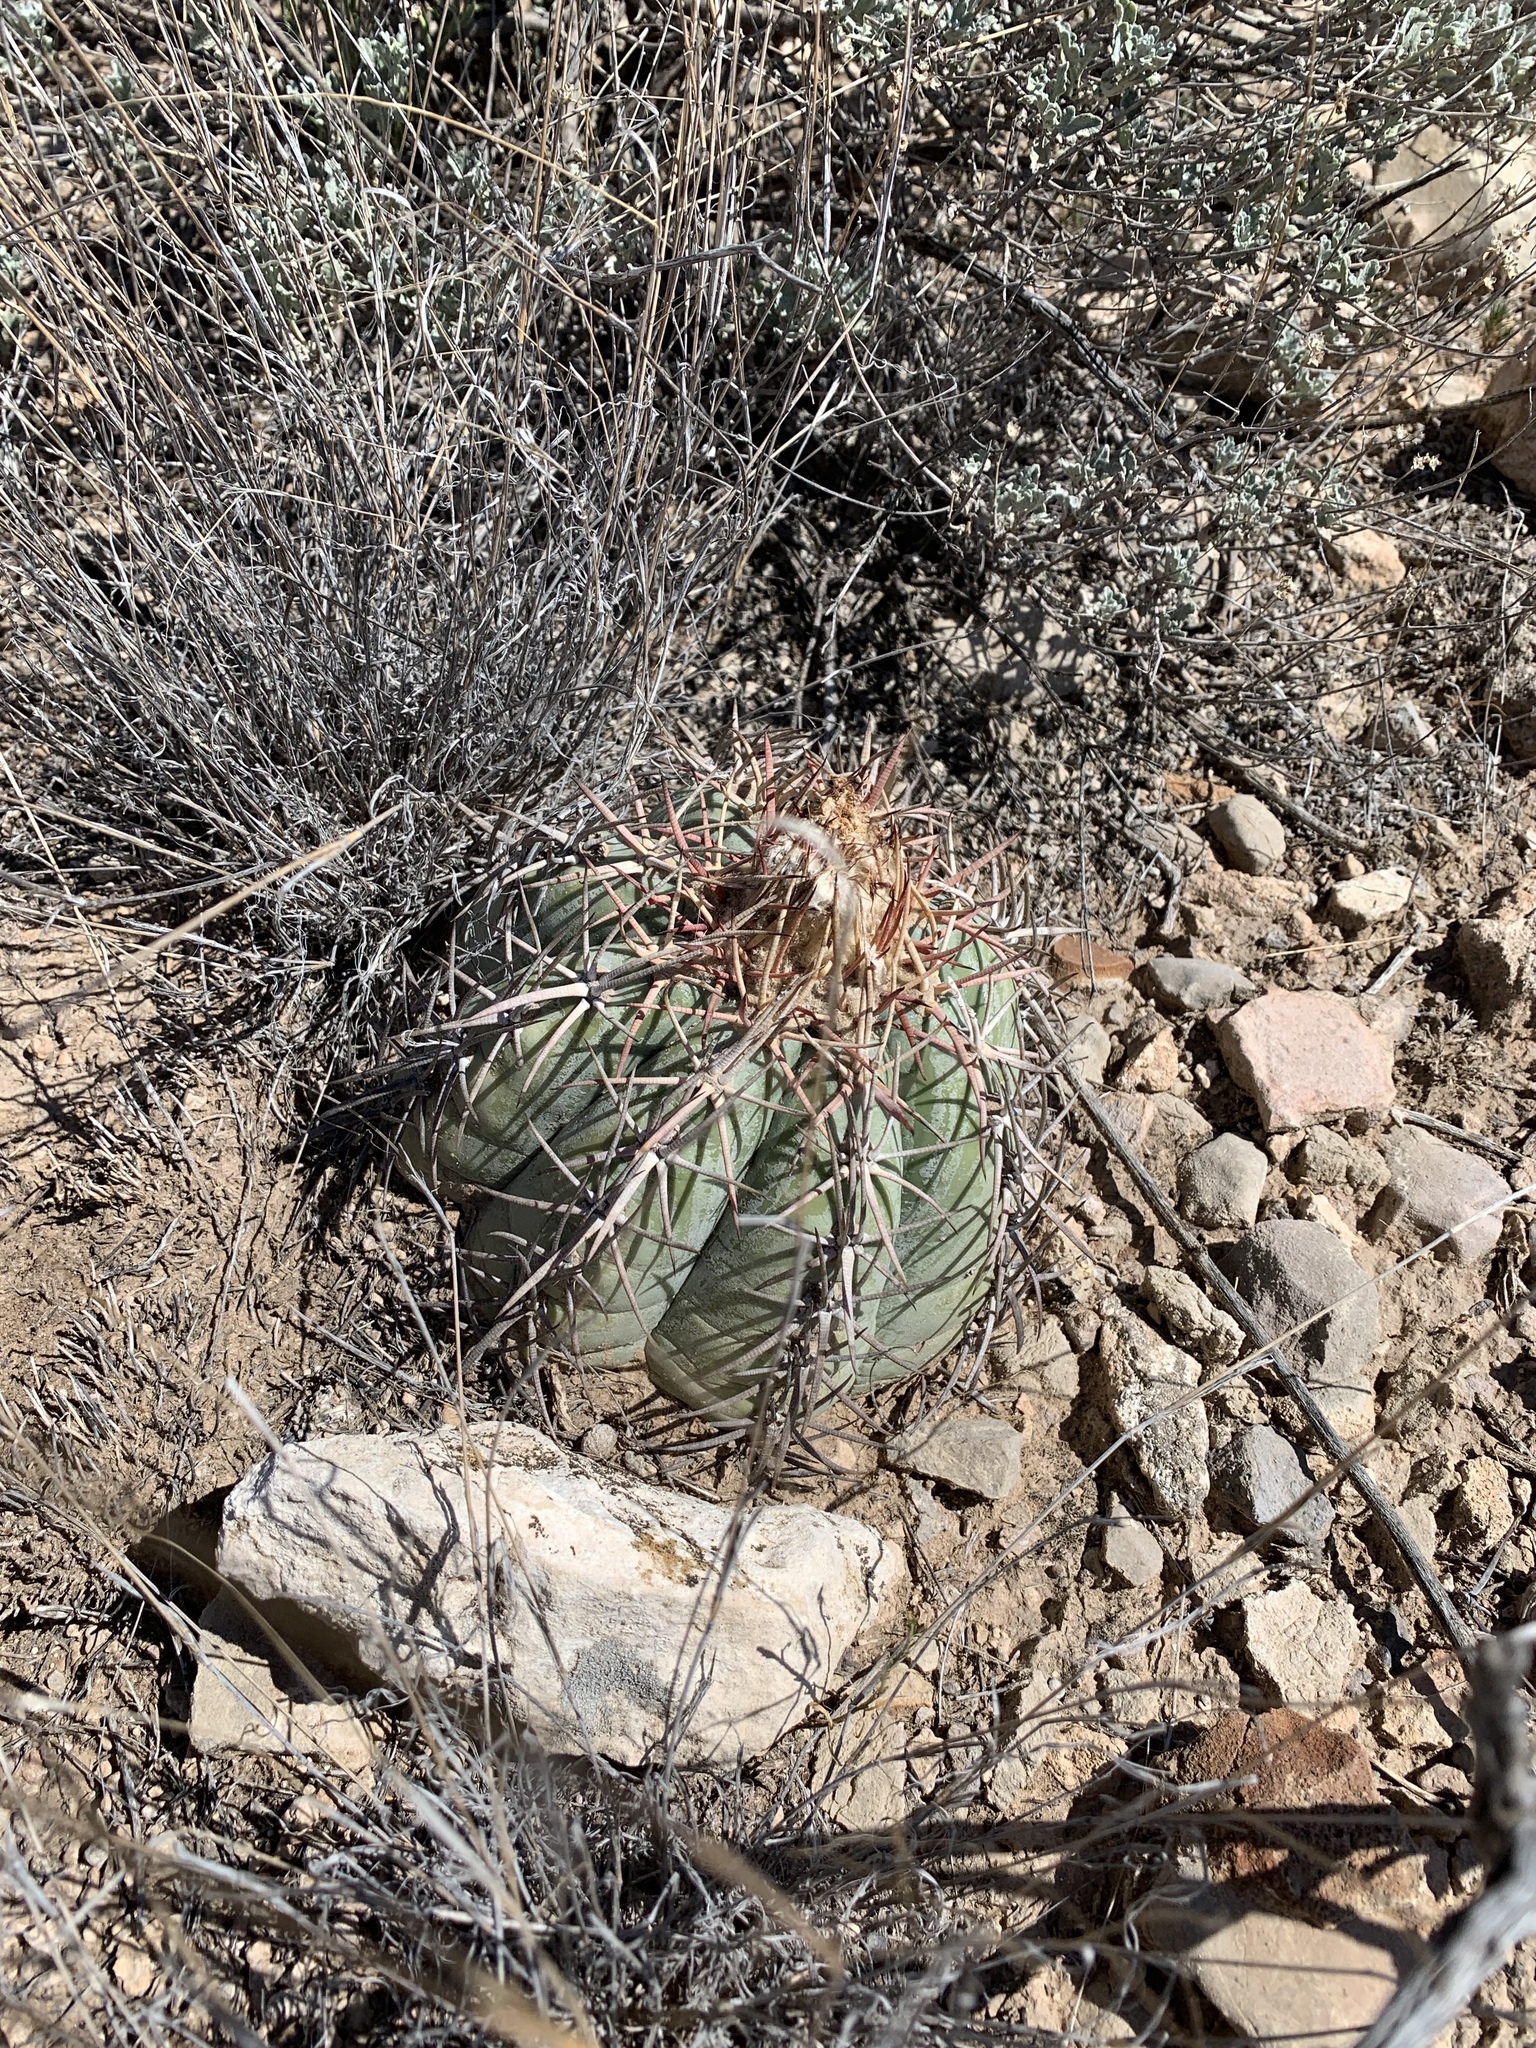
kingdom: Plantae
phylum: Tracheophyta
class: Magnoliopsida
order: Caryophyllales
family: Cactaceae
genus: Echinocactus
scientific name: Echinocactus horizonthalonius
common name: Devilshead
